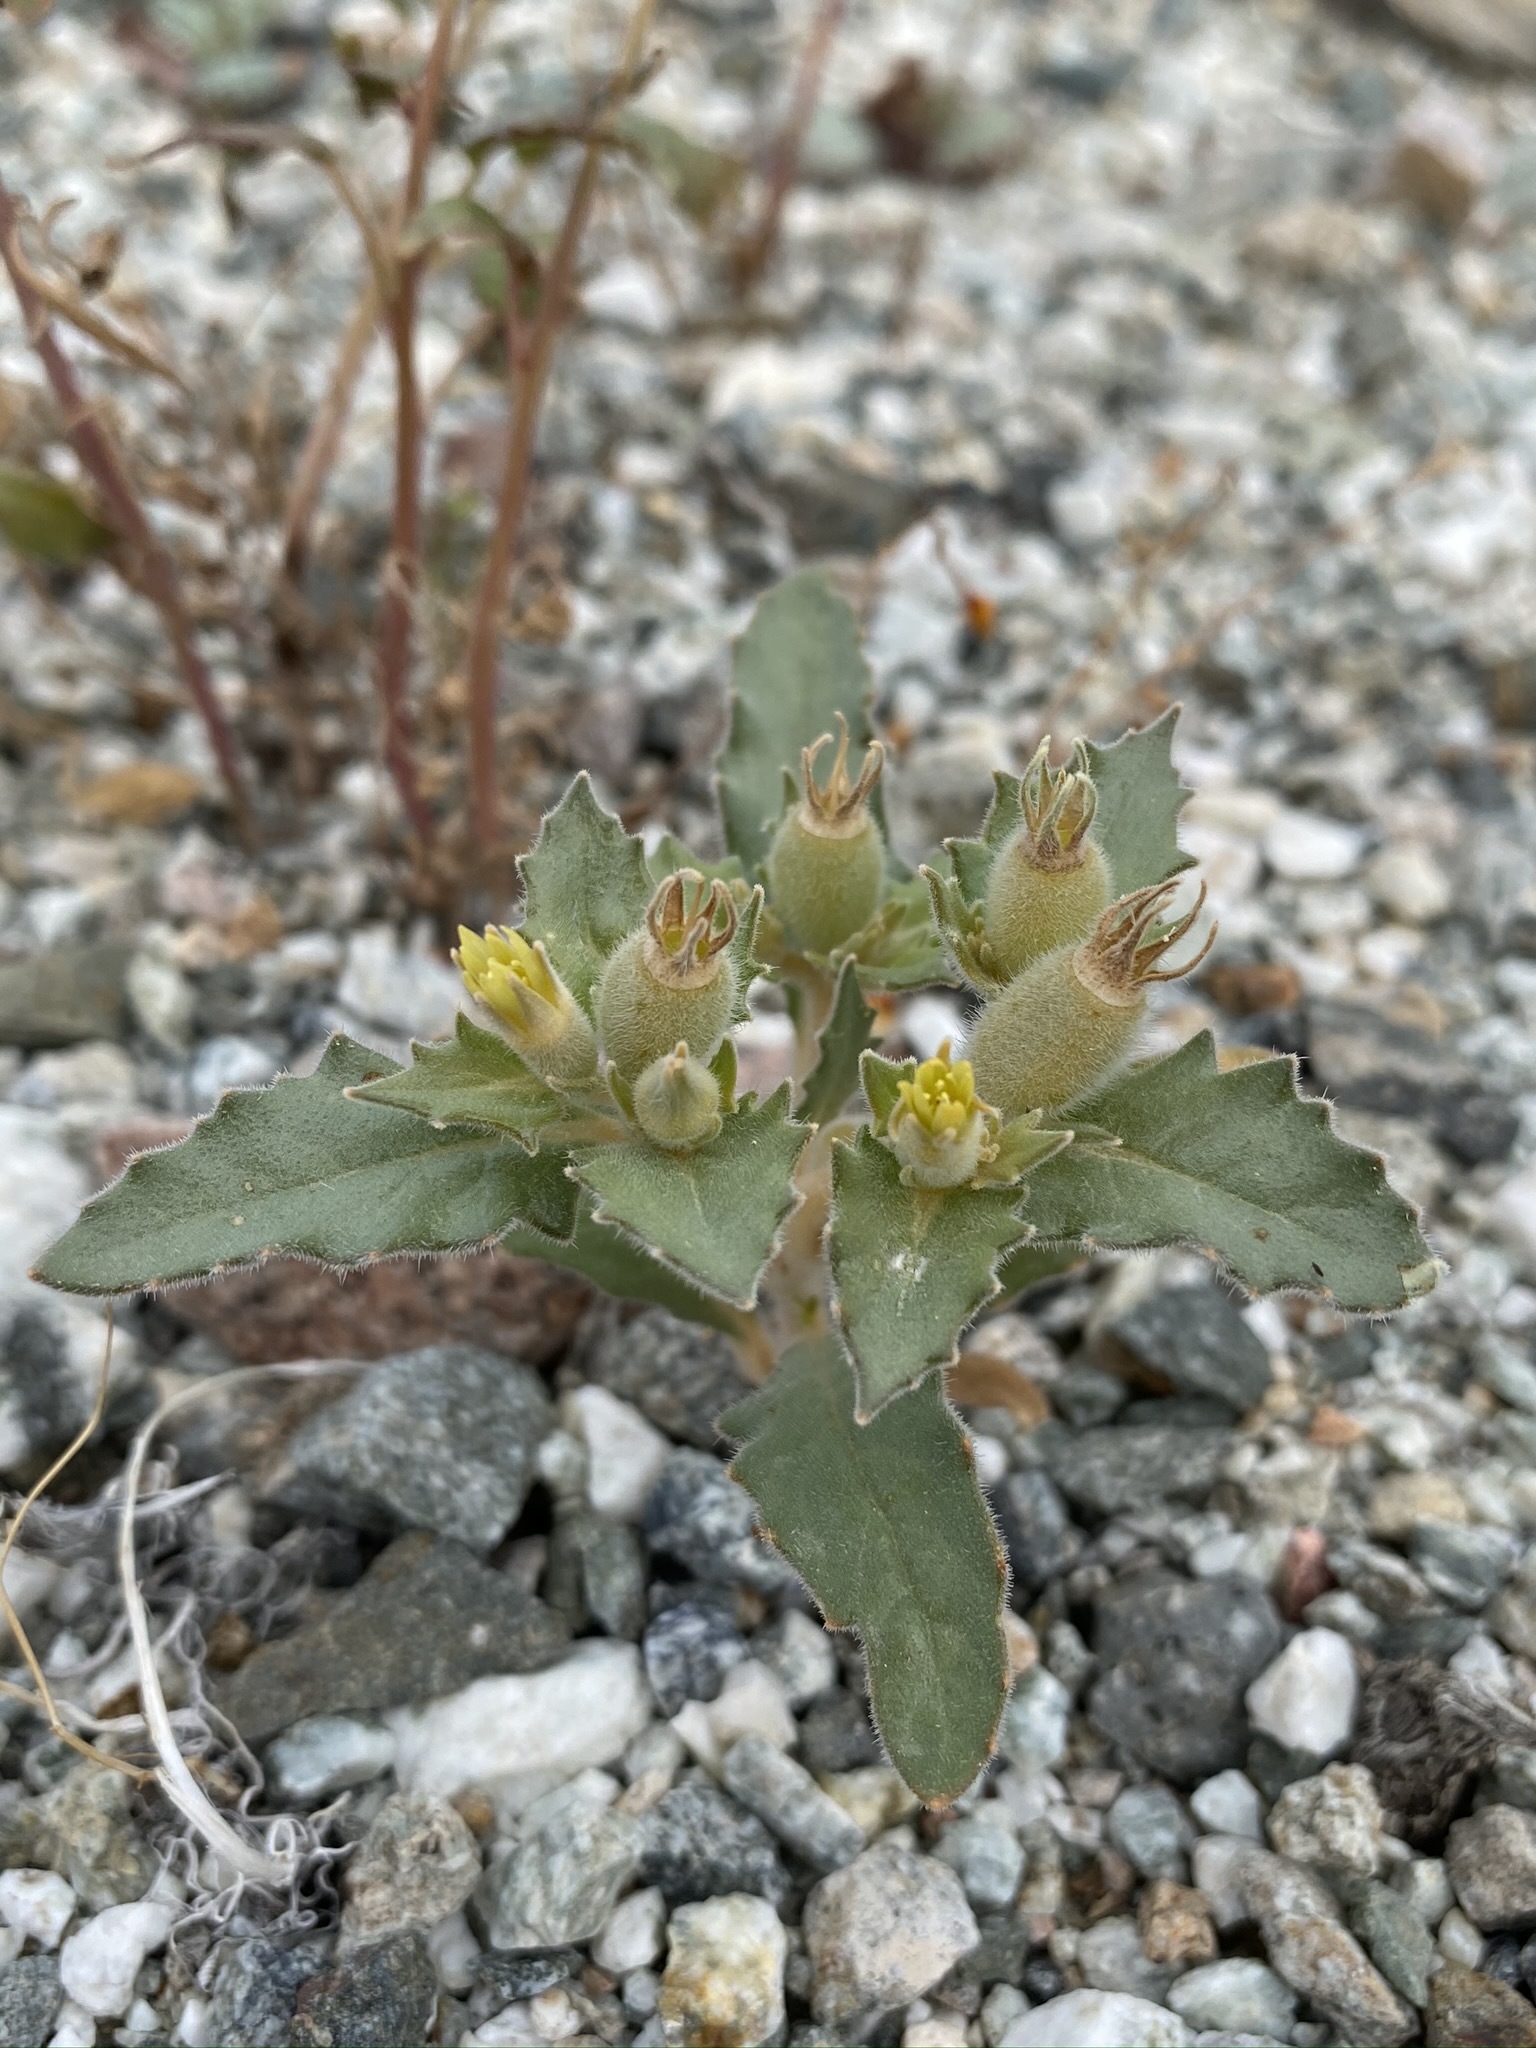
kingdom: Plantae
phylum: Tracheophyta
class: Magnoliopsida
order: Cornales
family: Loasaceae
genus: Mentzelia
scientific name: Mentzelia reflexa
